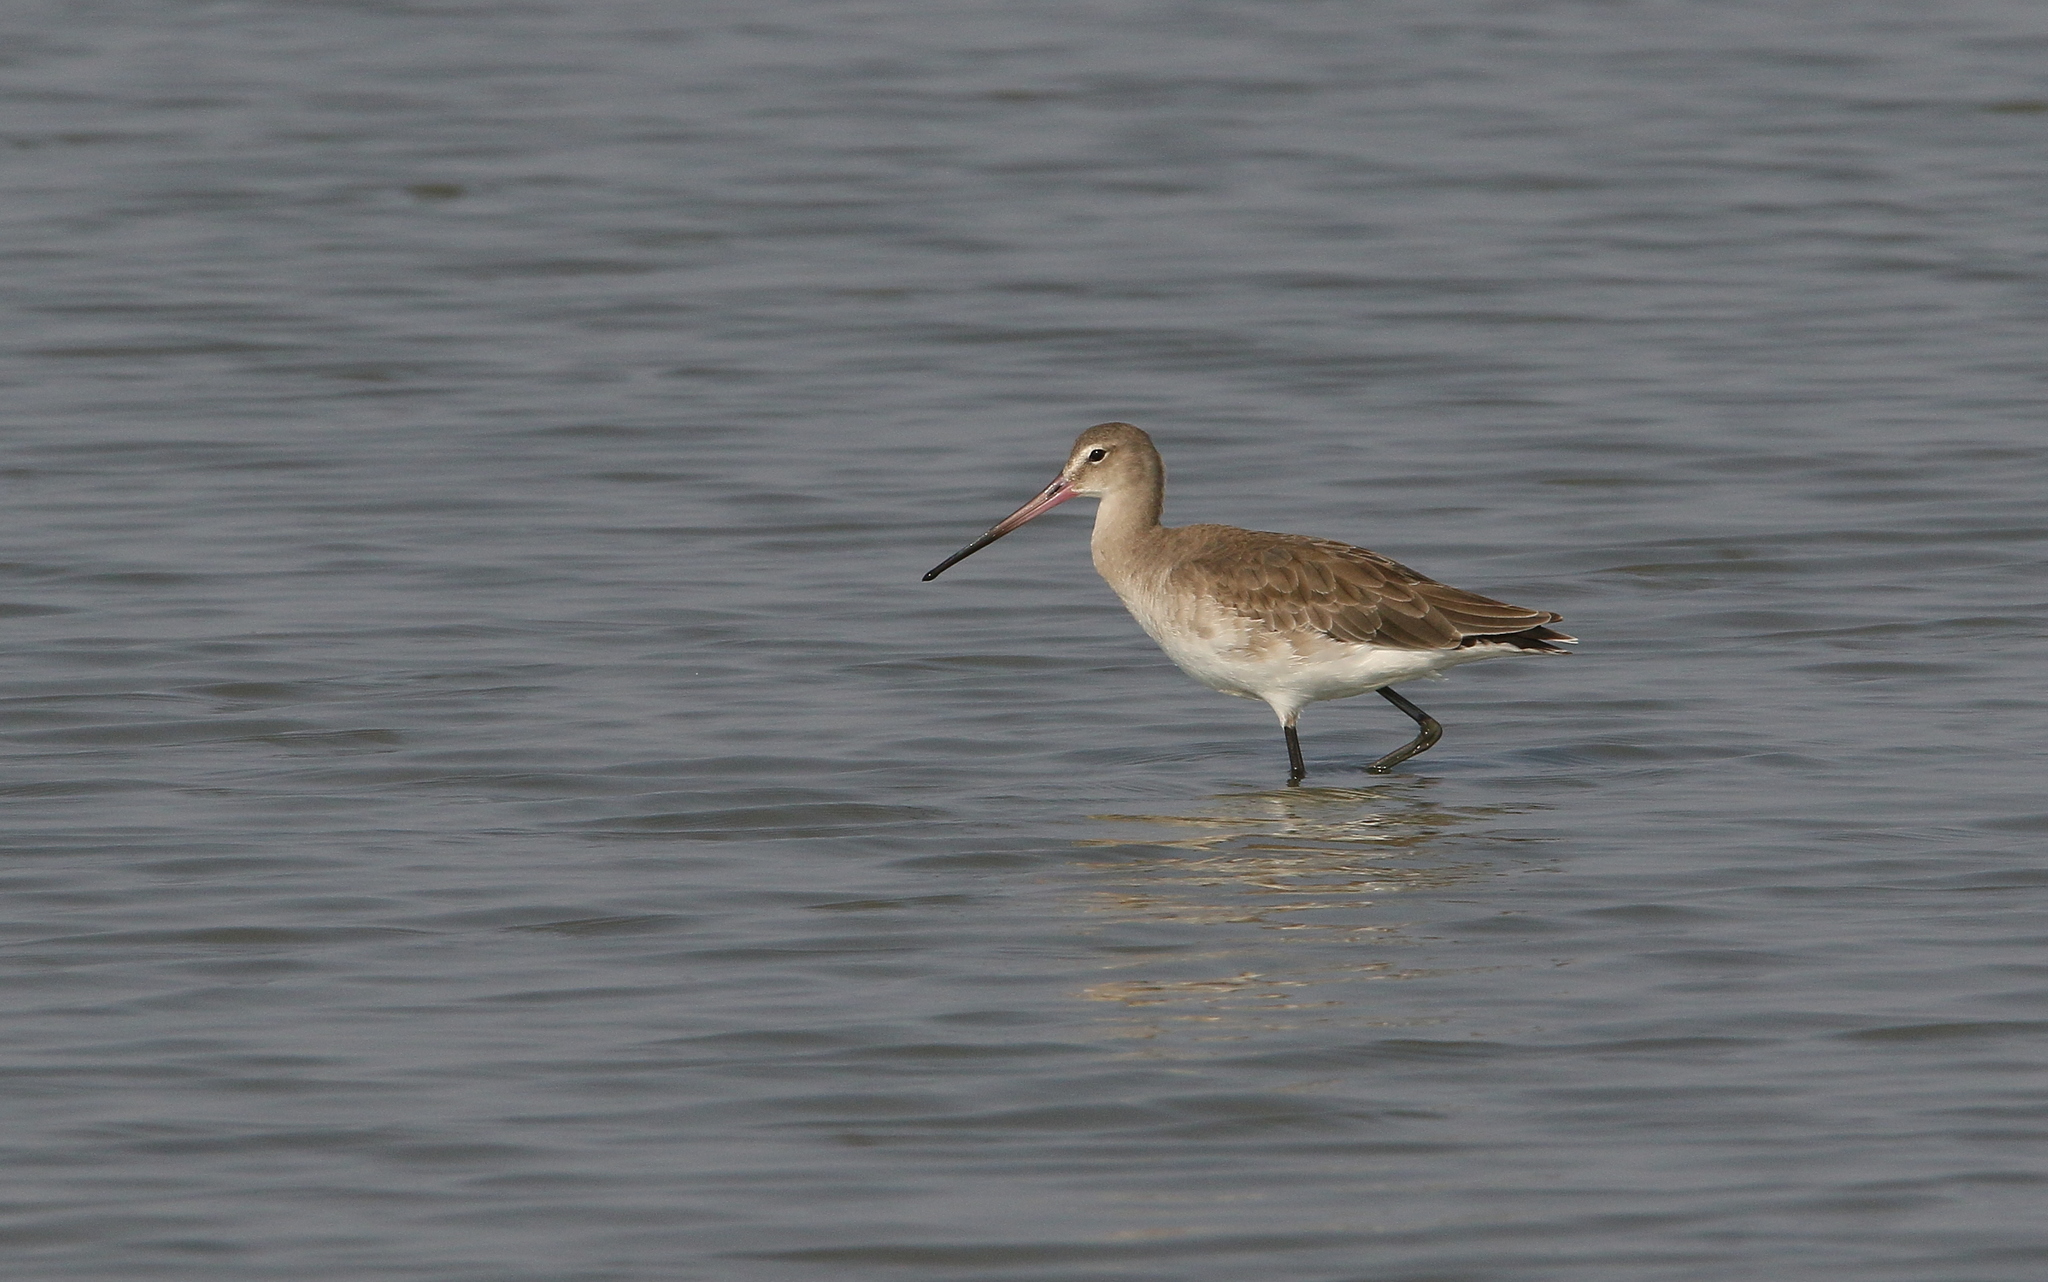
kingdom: Animalia
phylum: Chordata
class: Aves
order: Charadriiformes
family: Scolopacidae
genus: Limosa
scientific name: Limosa limosa
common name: Black-tailed godwit
